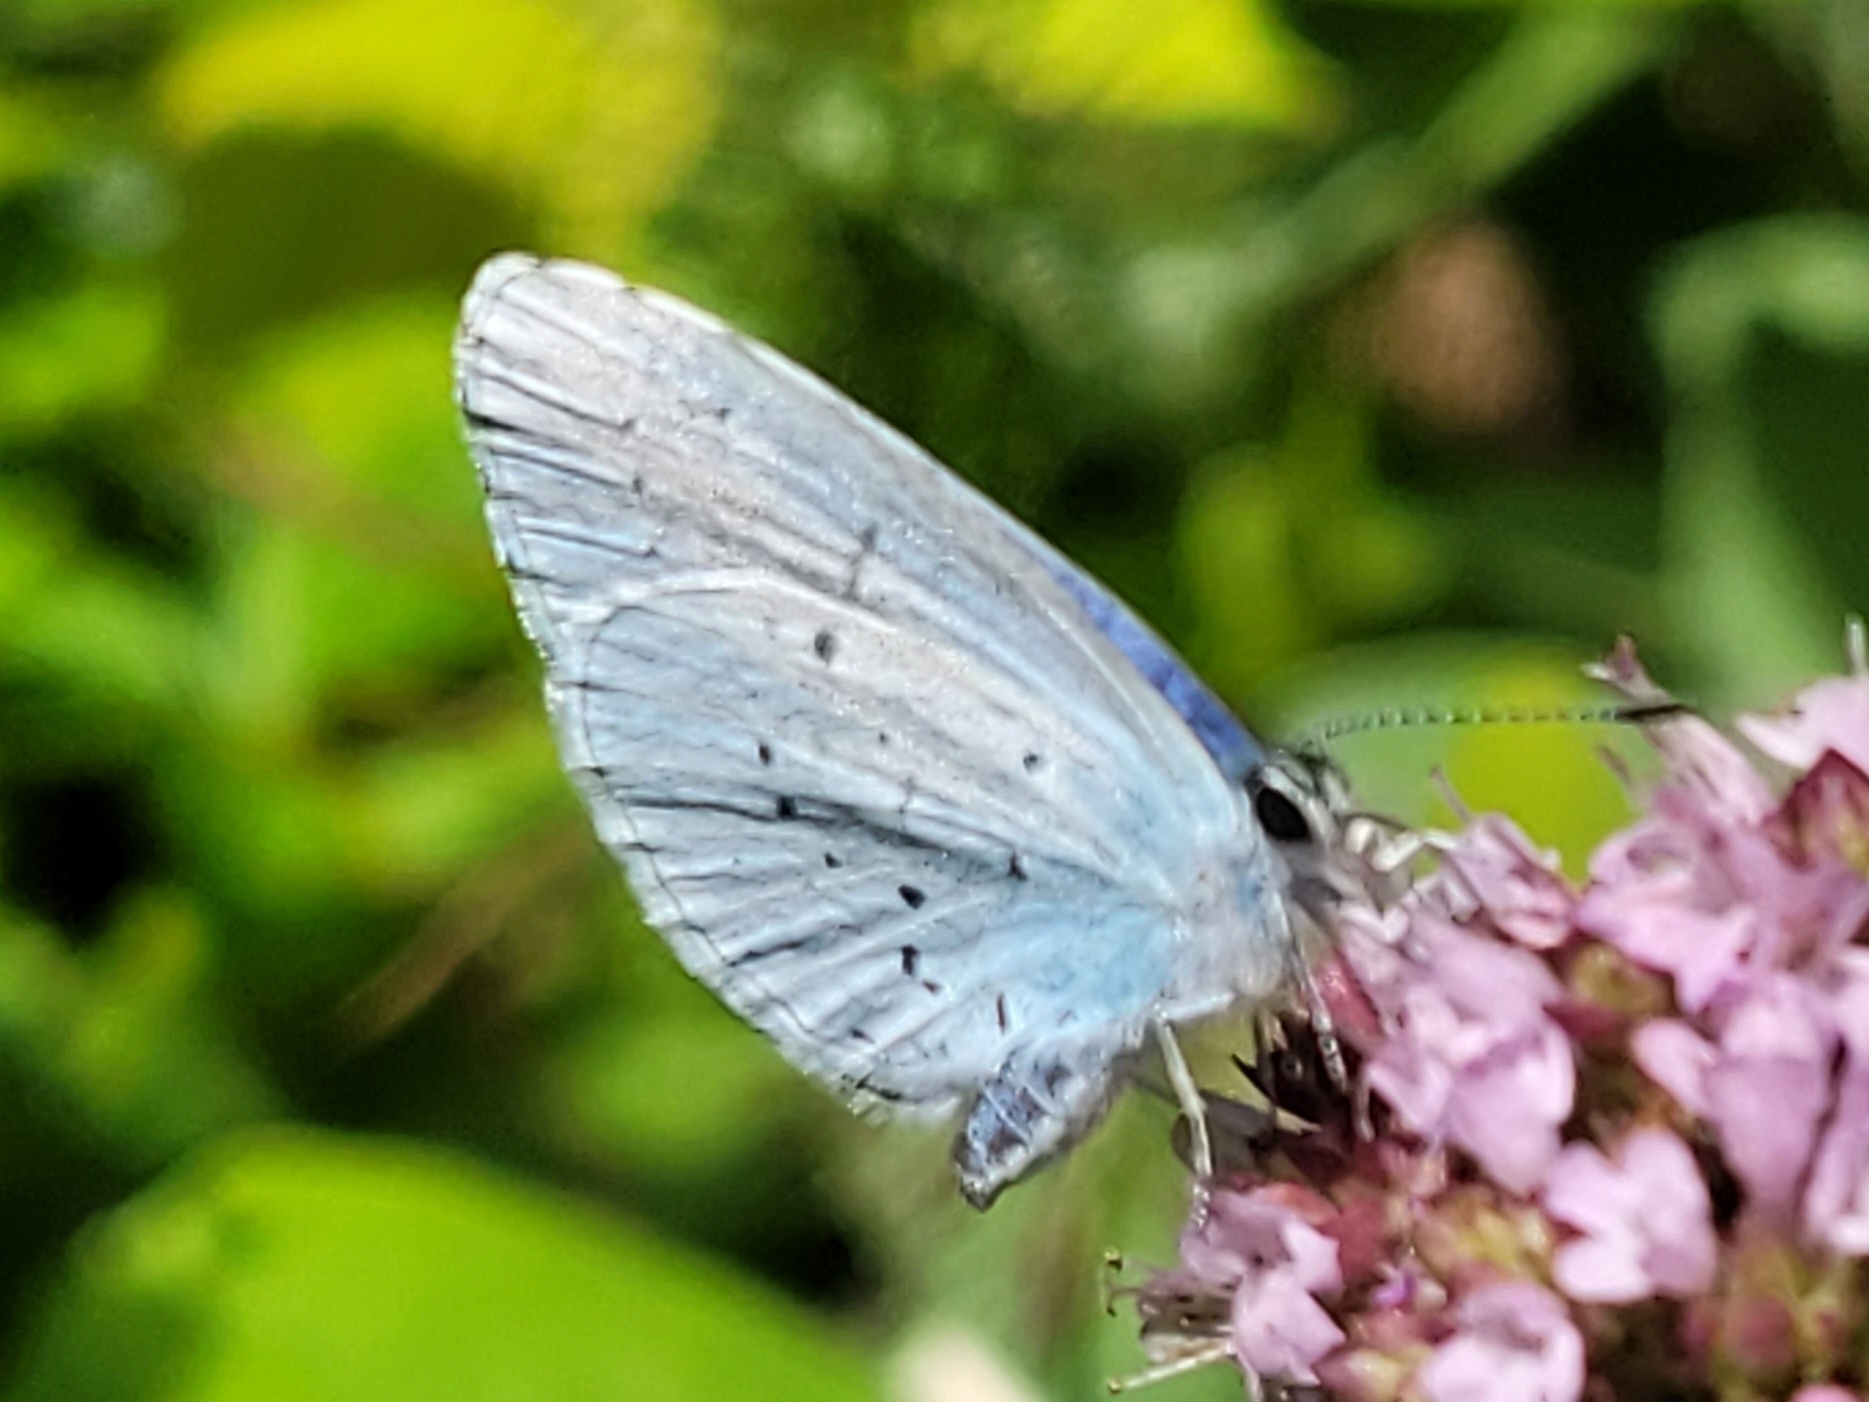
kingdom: Animalia
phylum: Arthropoda
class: Insecta
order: Lepidoptera
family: Lycaenidae
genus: Celastrina
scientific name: Celastrina argiolus
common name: Holly blue
